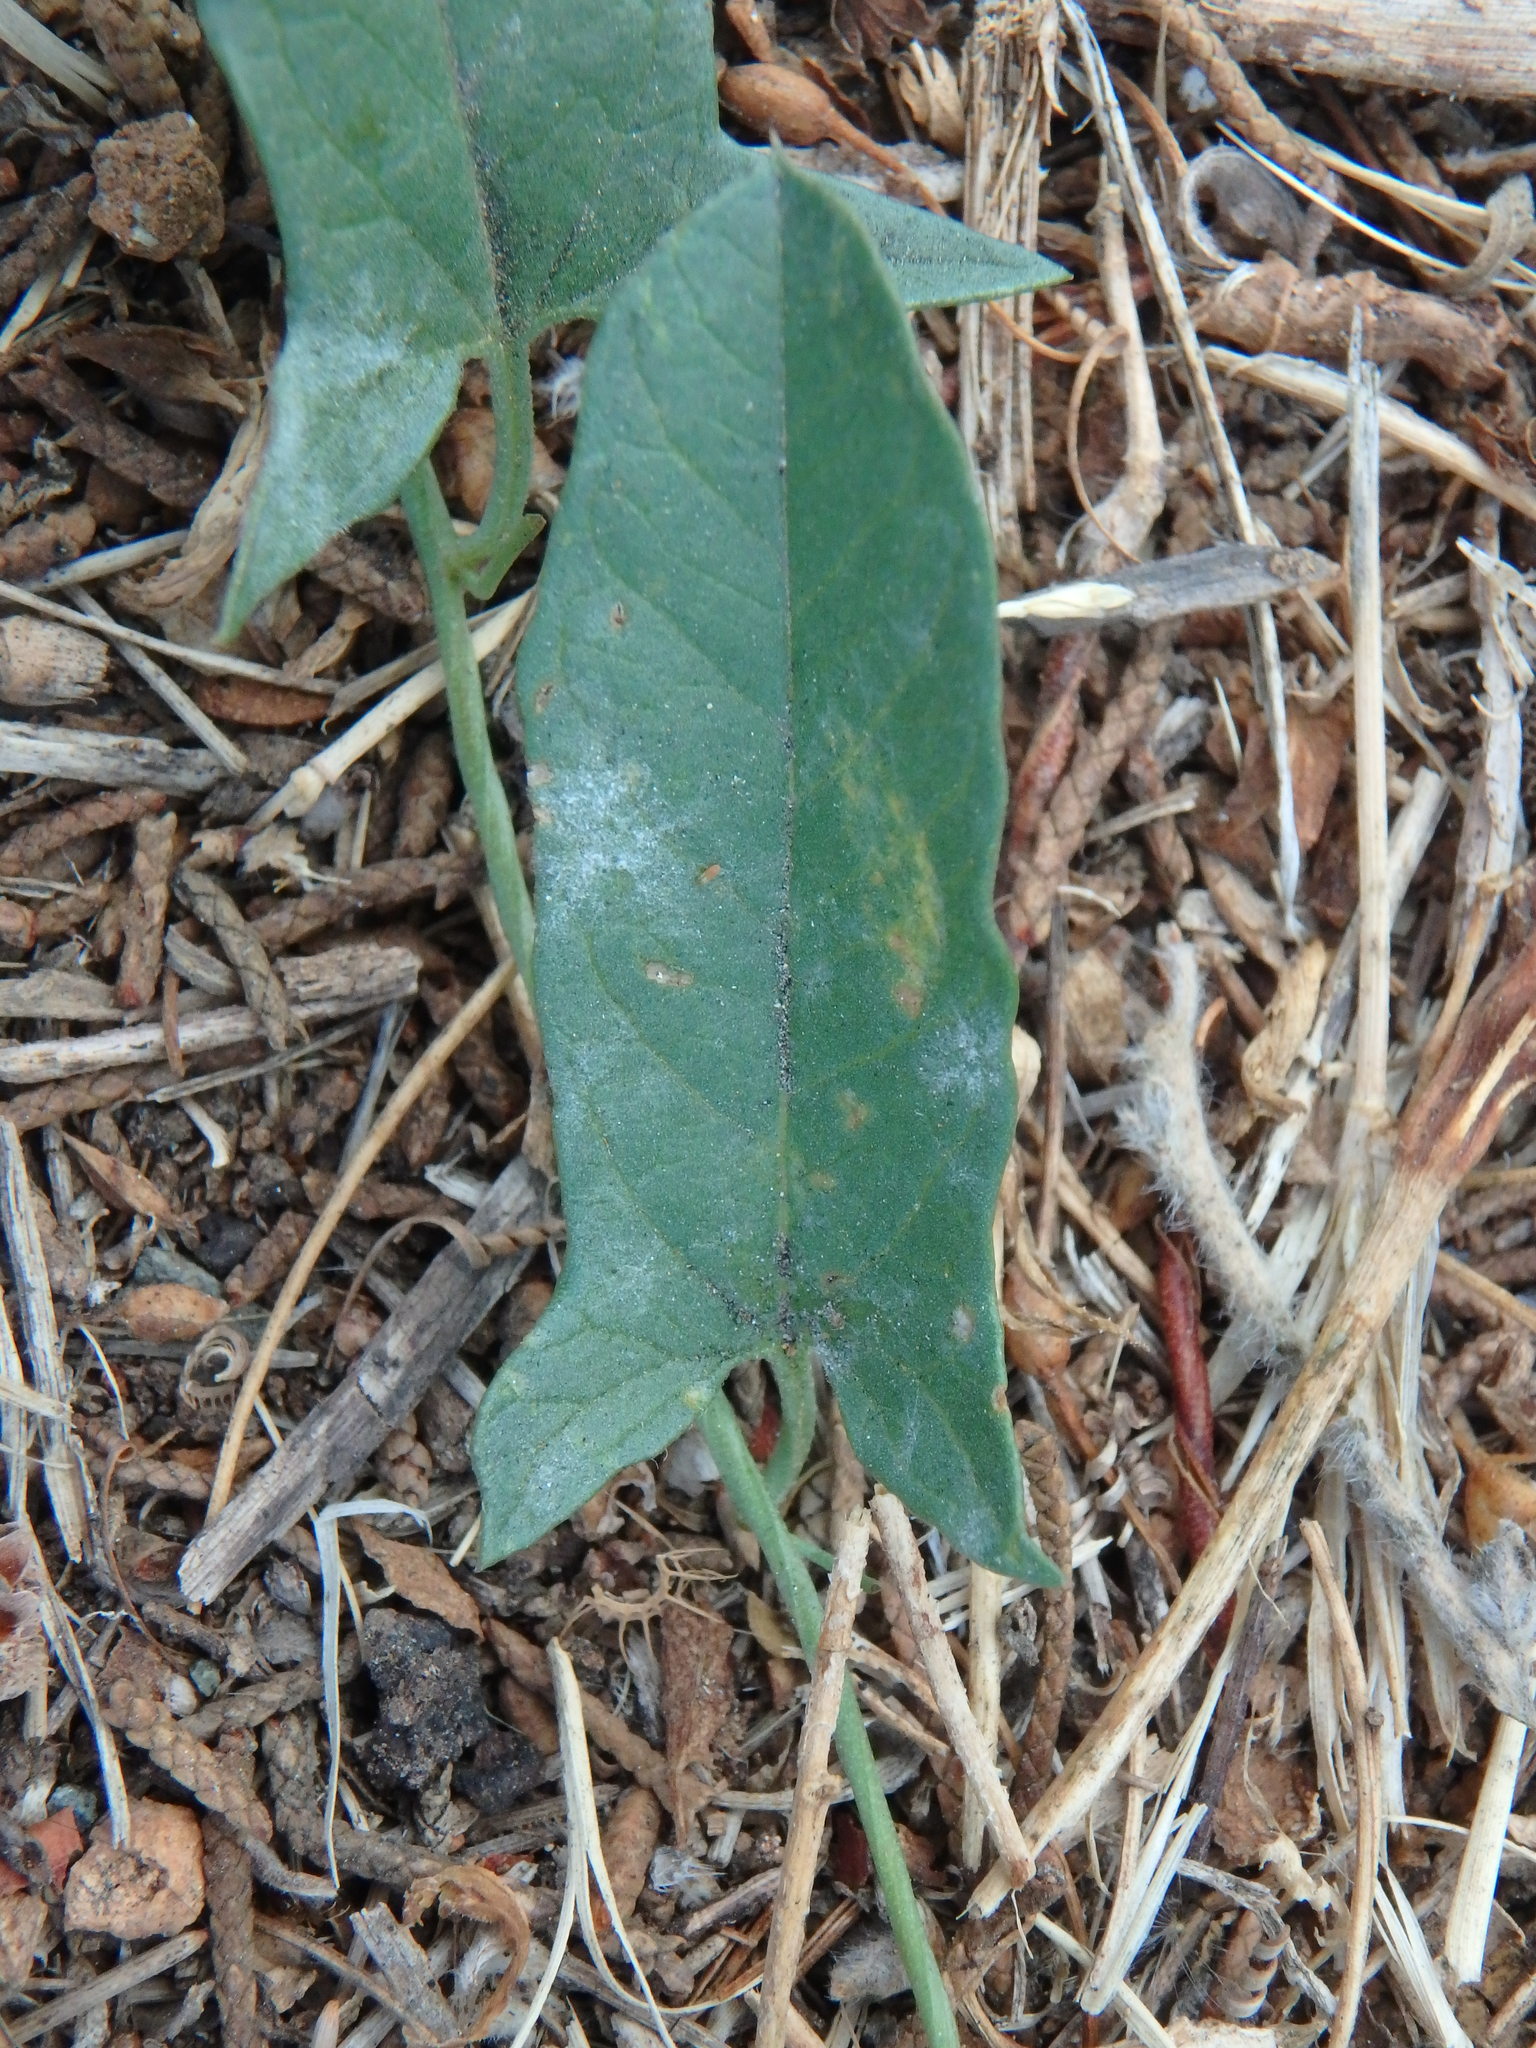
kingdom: Plantae
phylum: Tracheophyta
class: Magnoliopsida
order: Solanales
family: Convolvulaceae
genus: Convolvulus
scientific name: Convolvulus arvensis
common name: Field bindweed
